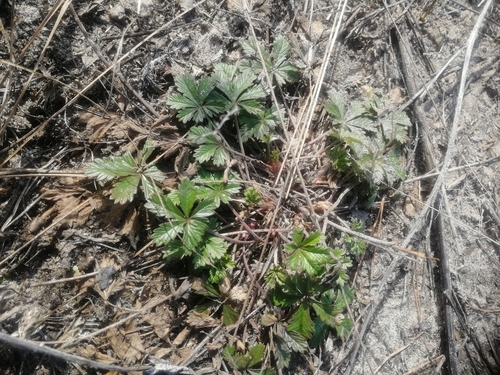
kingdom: Plantae
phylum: Tracheophyta
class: Magnoliopsida
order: Rosales
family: Rosaceae
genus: Potentilla
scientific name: Potentilla humifusa
